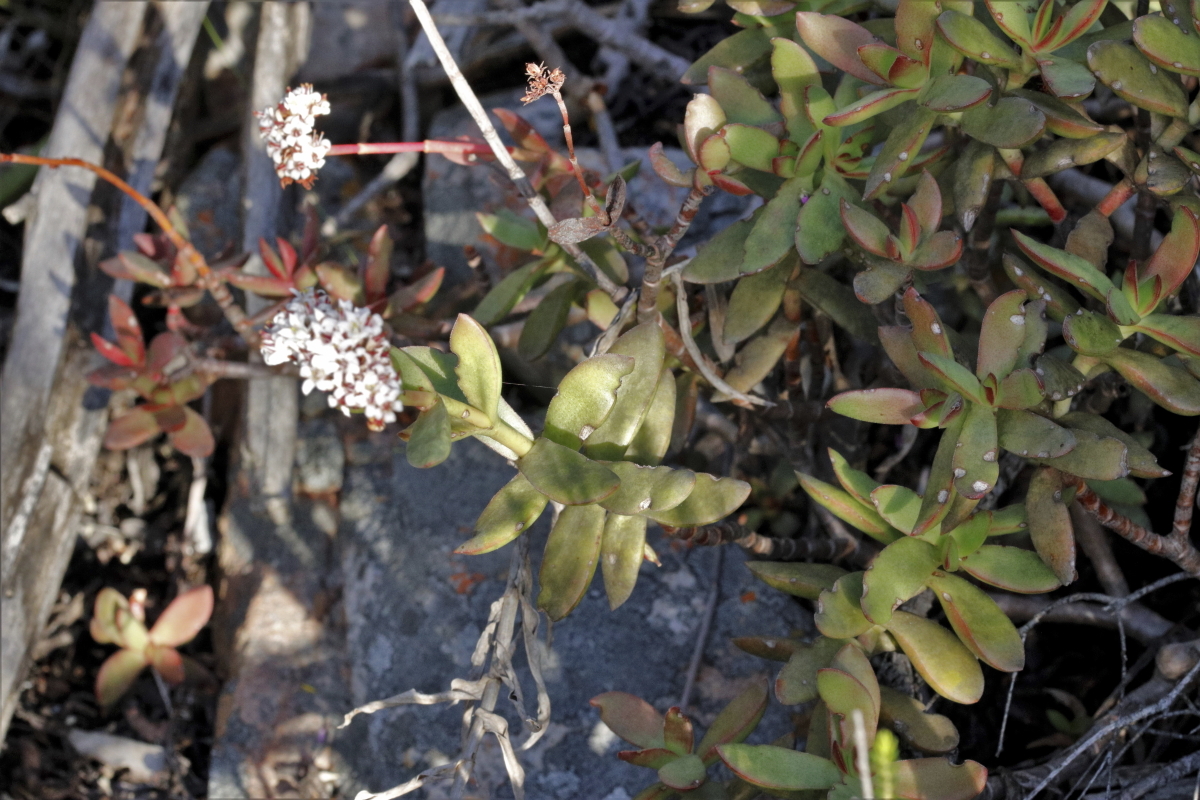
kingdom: Plantae
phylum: Tracheophyta
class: Magnoliopsida
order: Saxifragales
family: Crassulaceae
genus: Crassula
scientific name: Crassula rubricaulis
